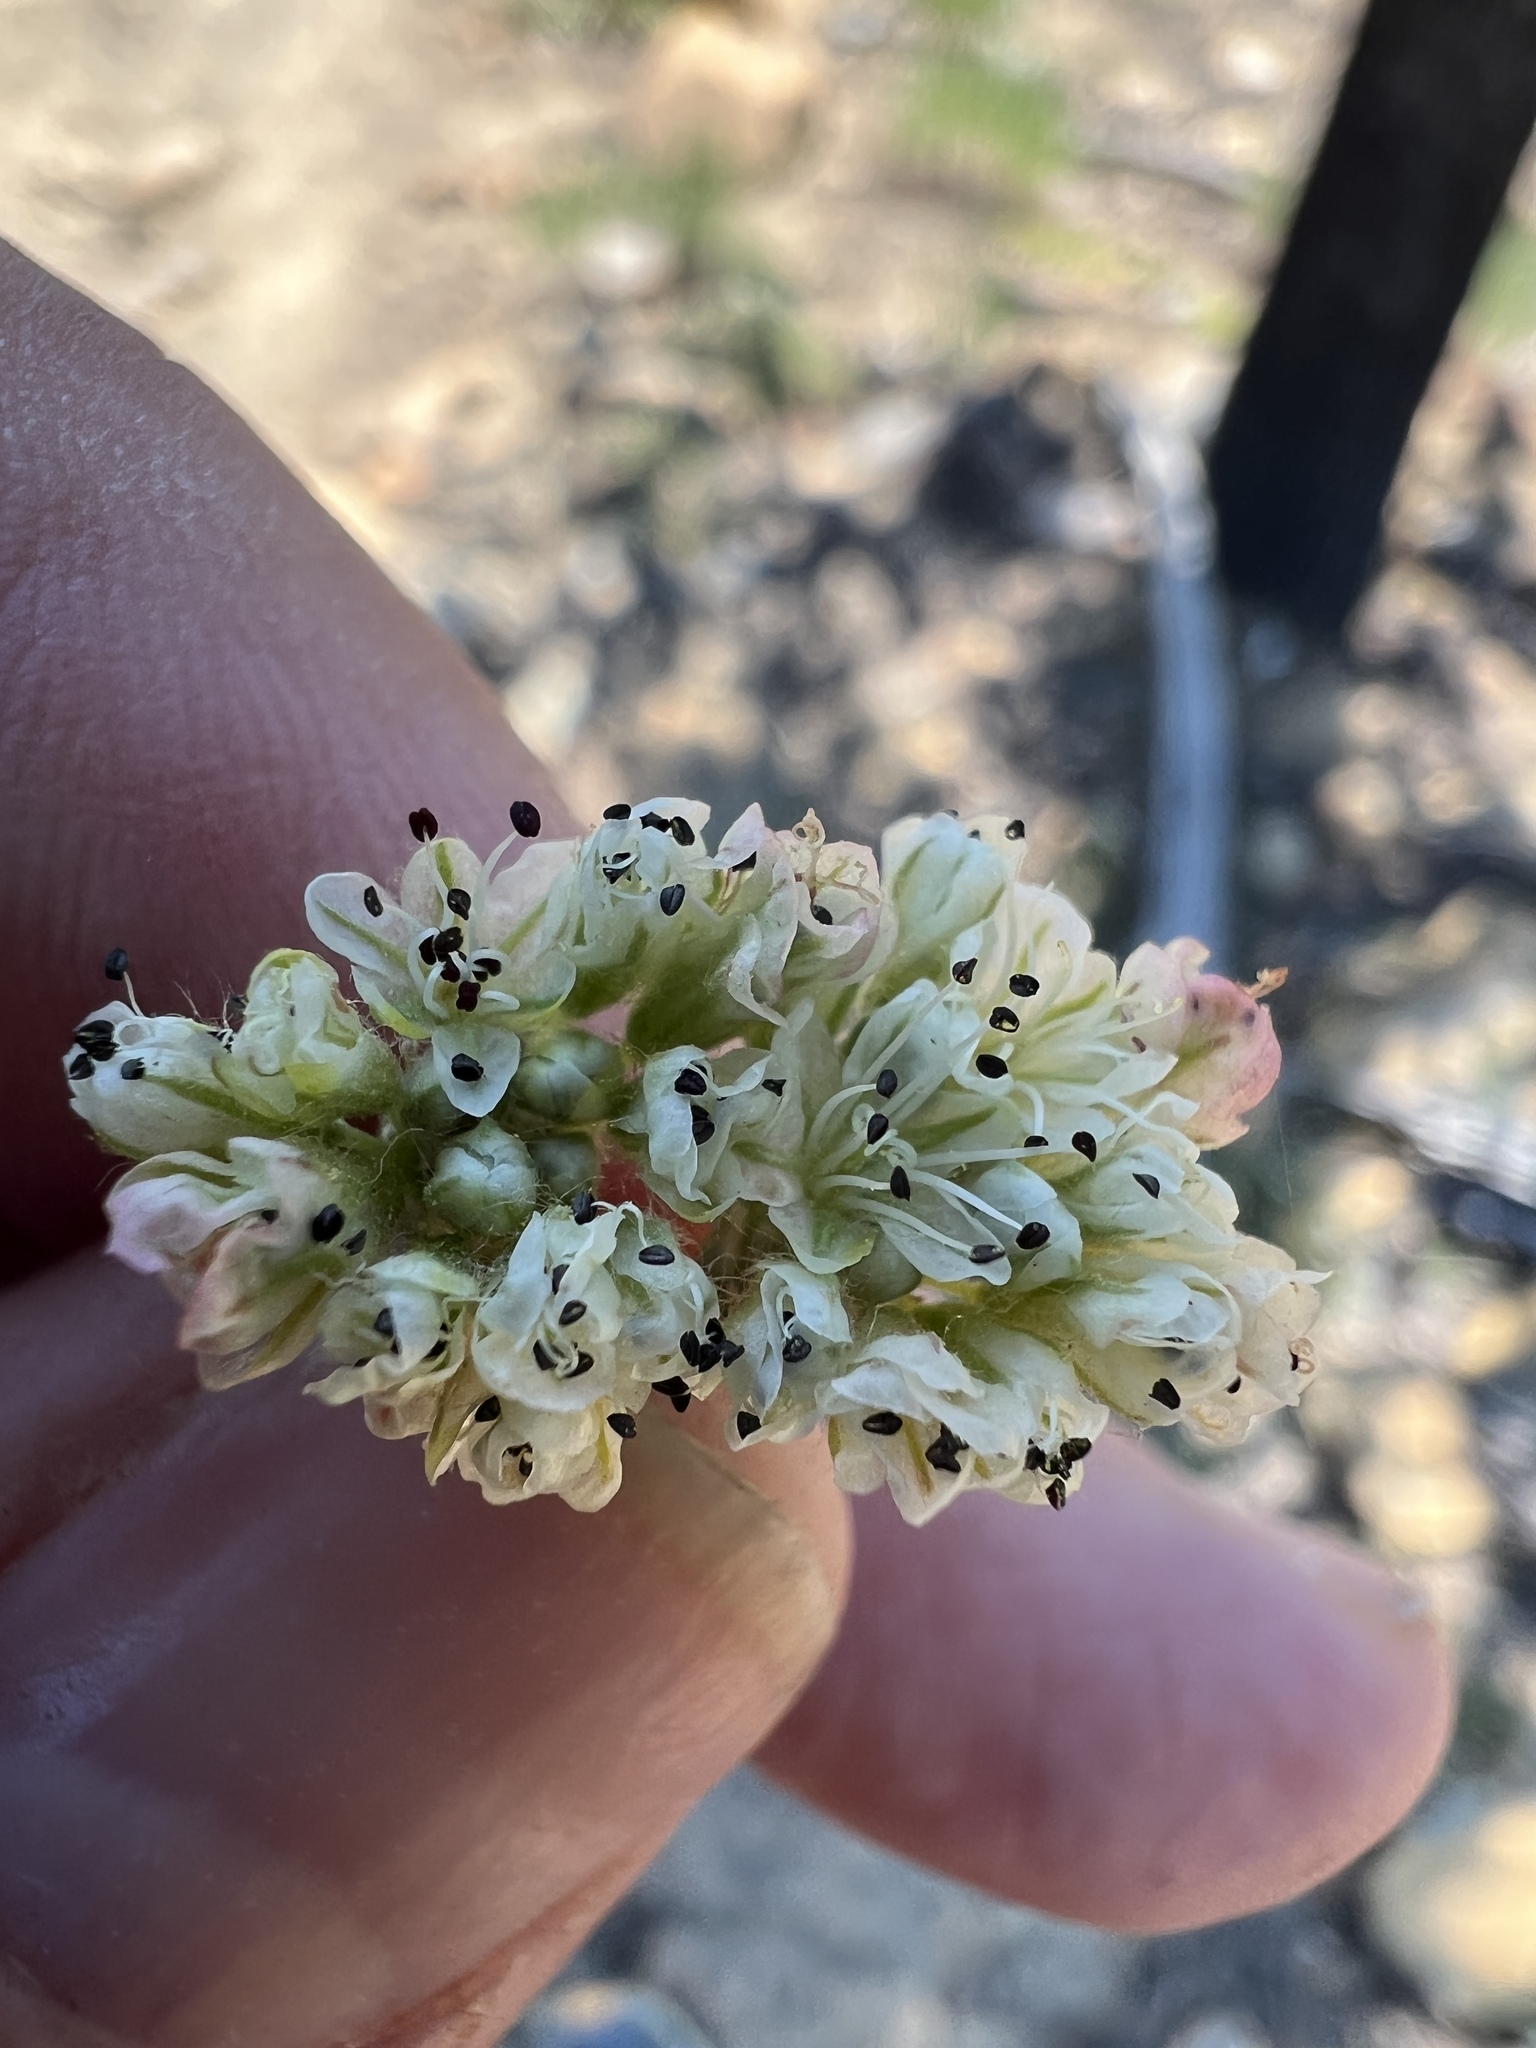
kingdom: Plantae
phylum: Tracheophyta
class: Magnoliopsida
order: Caryophyllales
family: Polygonaceae
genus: Eriogonum
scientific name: Eriogonum pyrolifolium
